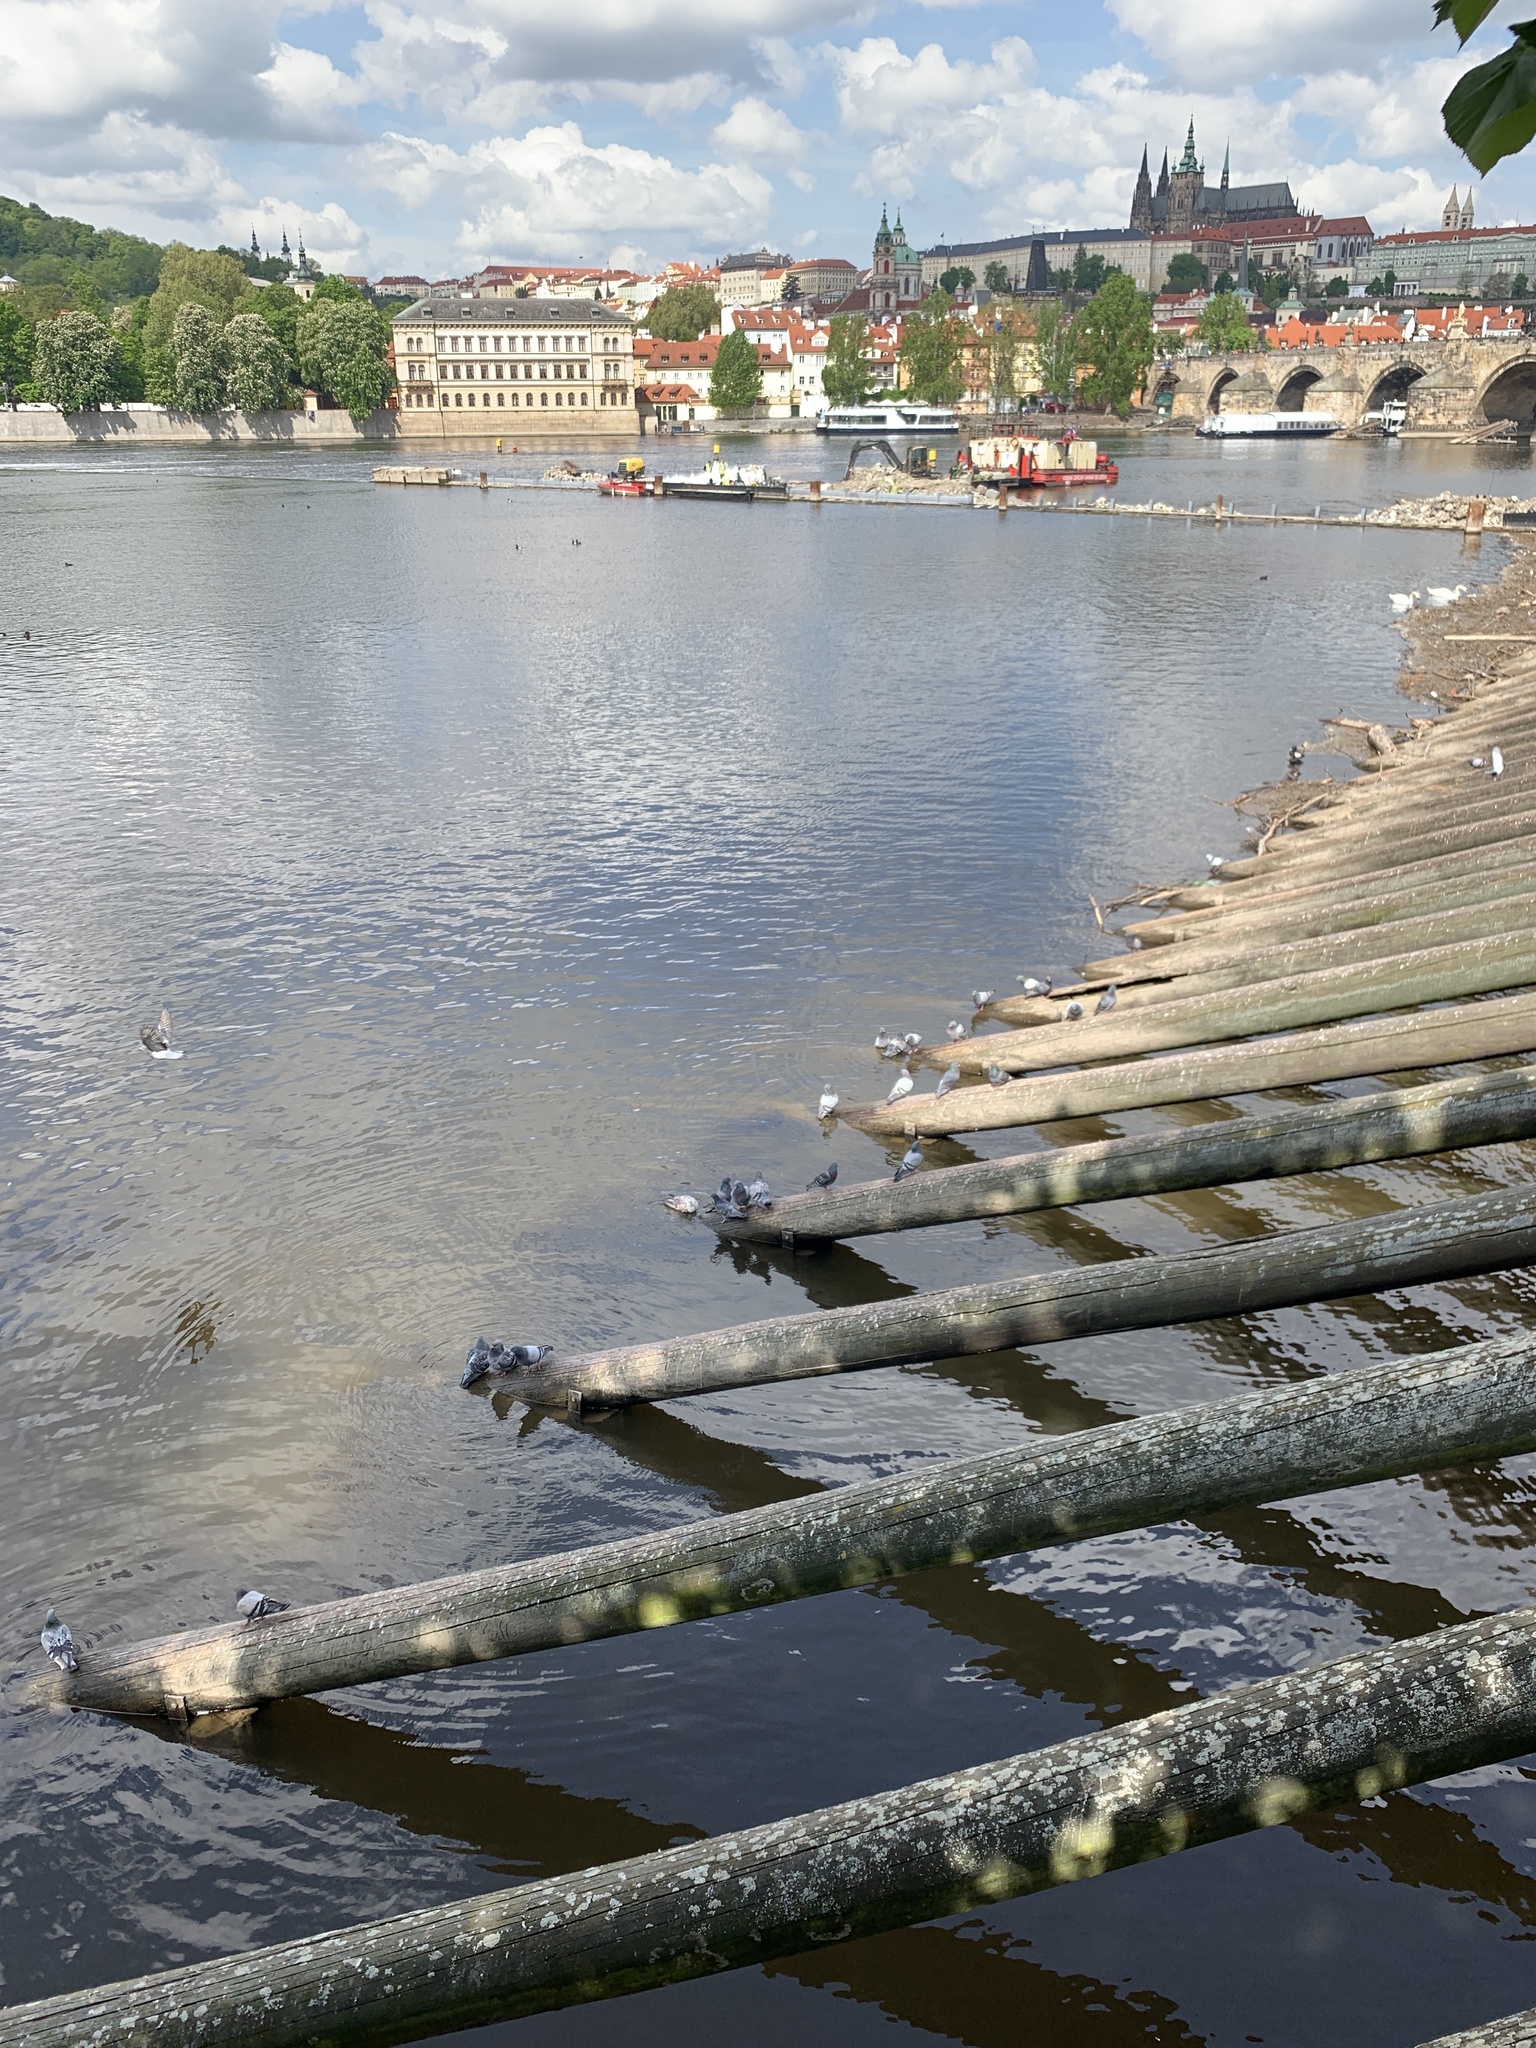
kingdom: Animalia
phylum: Chordata
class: Aves
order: Columbiformes
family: Columbidae
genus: Columba
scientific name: Columba livia
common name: Rock pigeon
